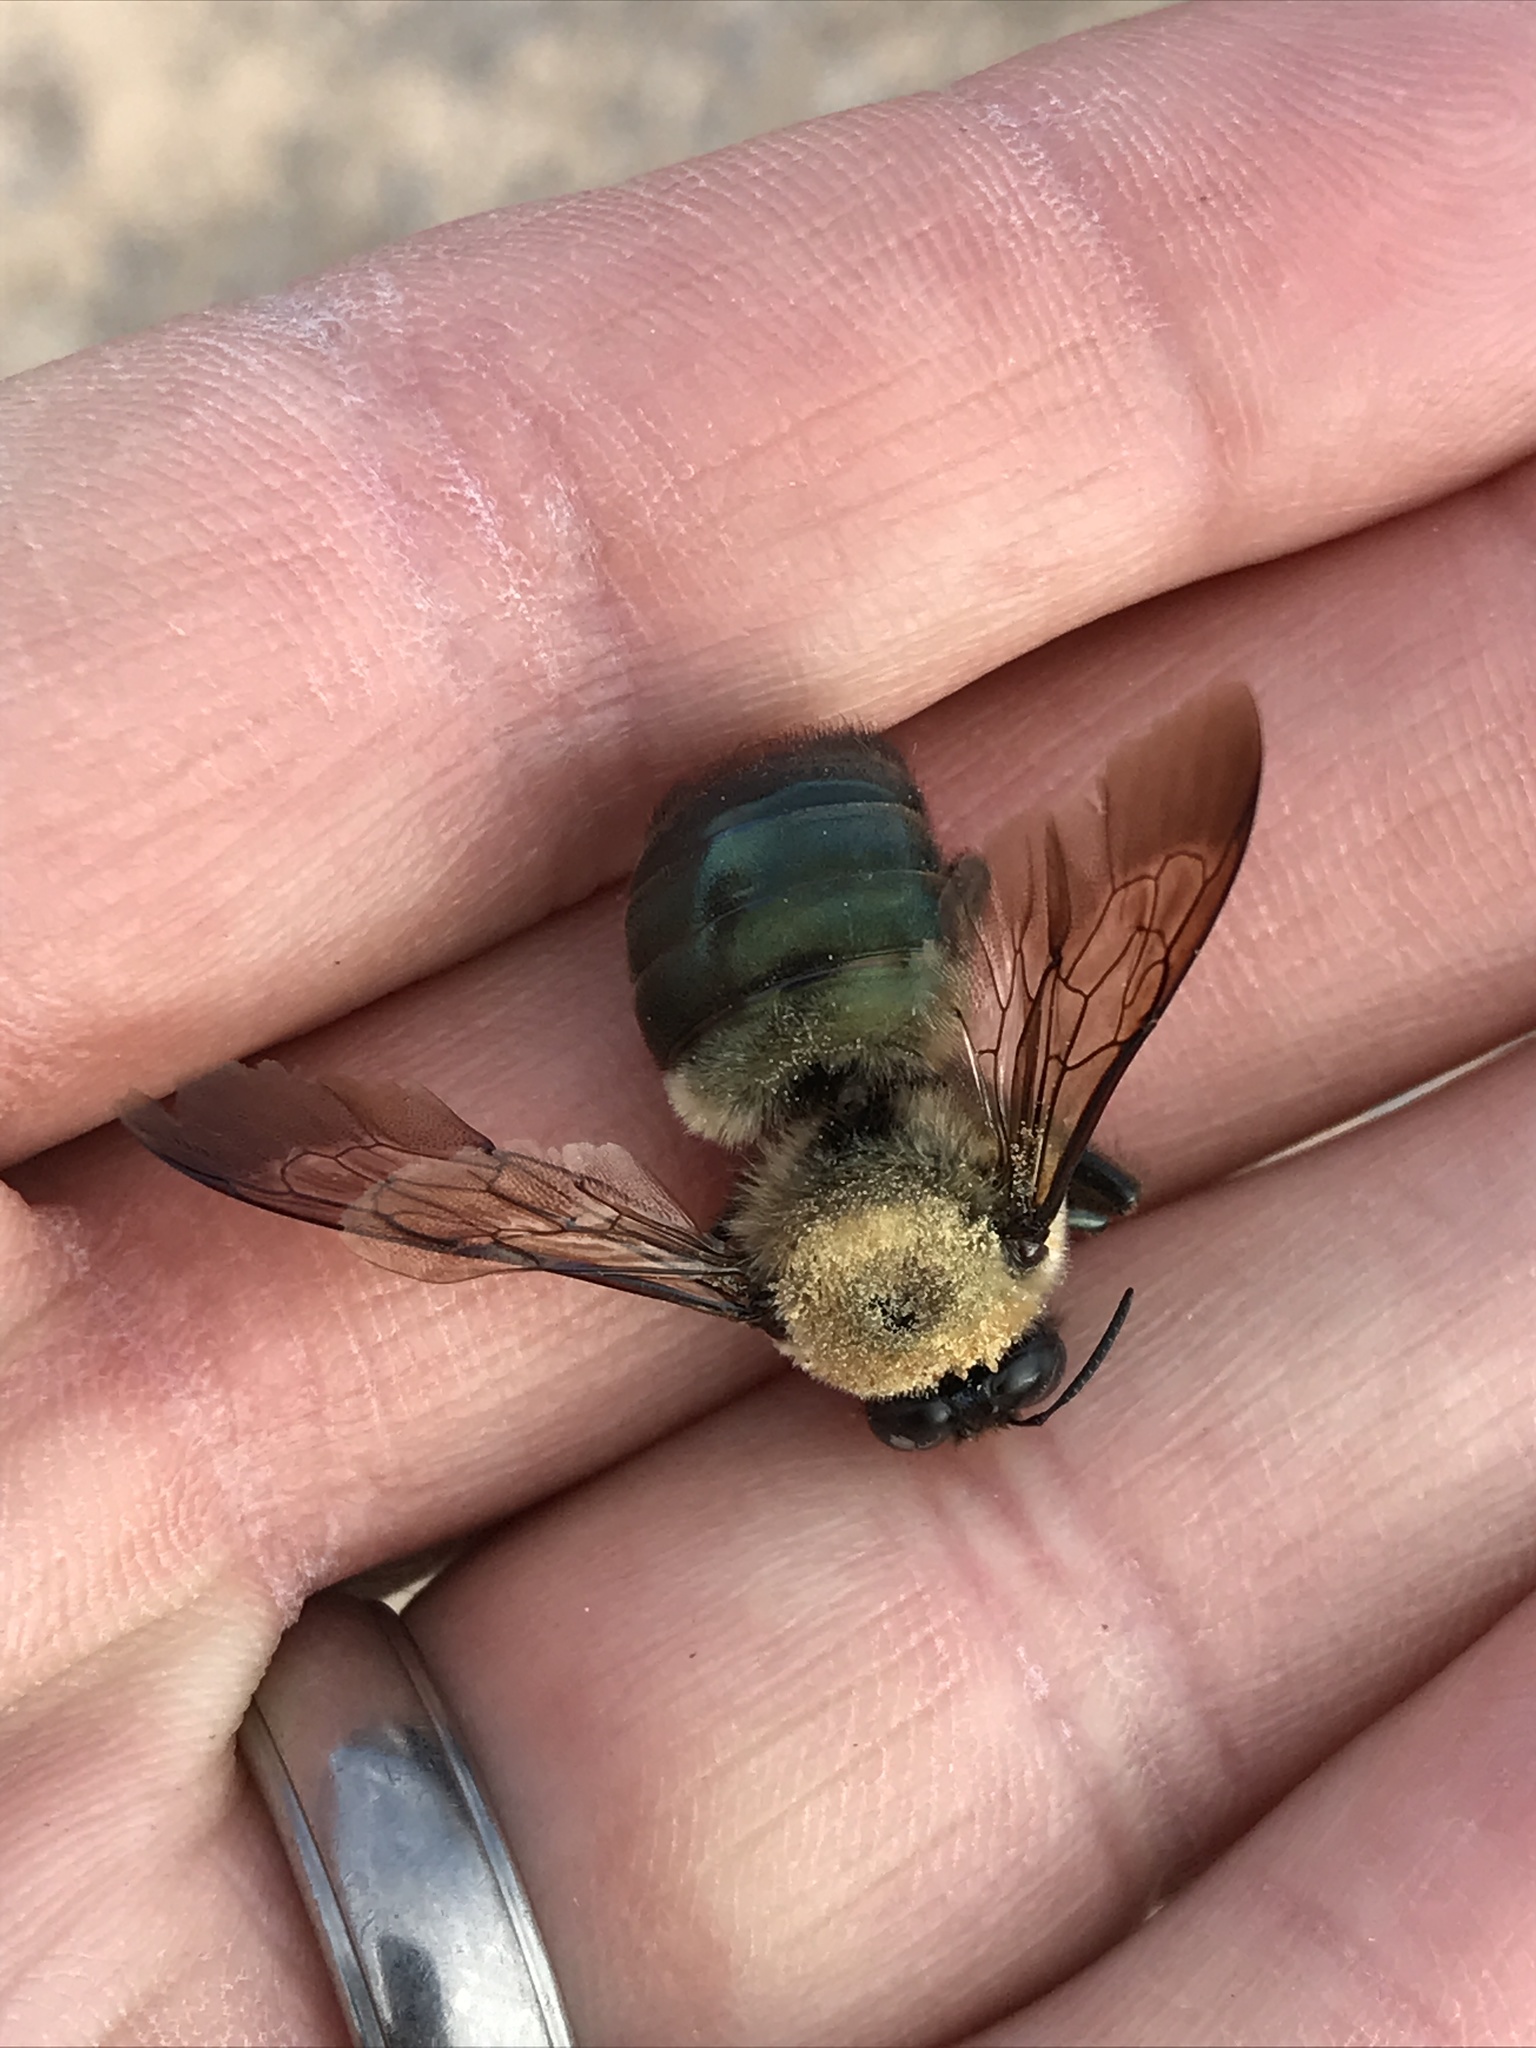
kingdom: Animalia
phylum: Arthropoda
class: Insecta
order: Hymenoptera
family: Apidae
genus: Xylocopa
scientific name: Xylocopa virginica
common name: Carpenter bee
